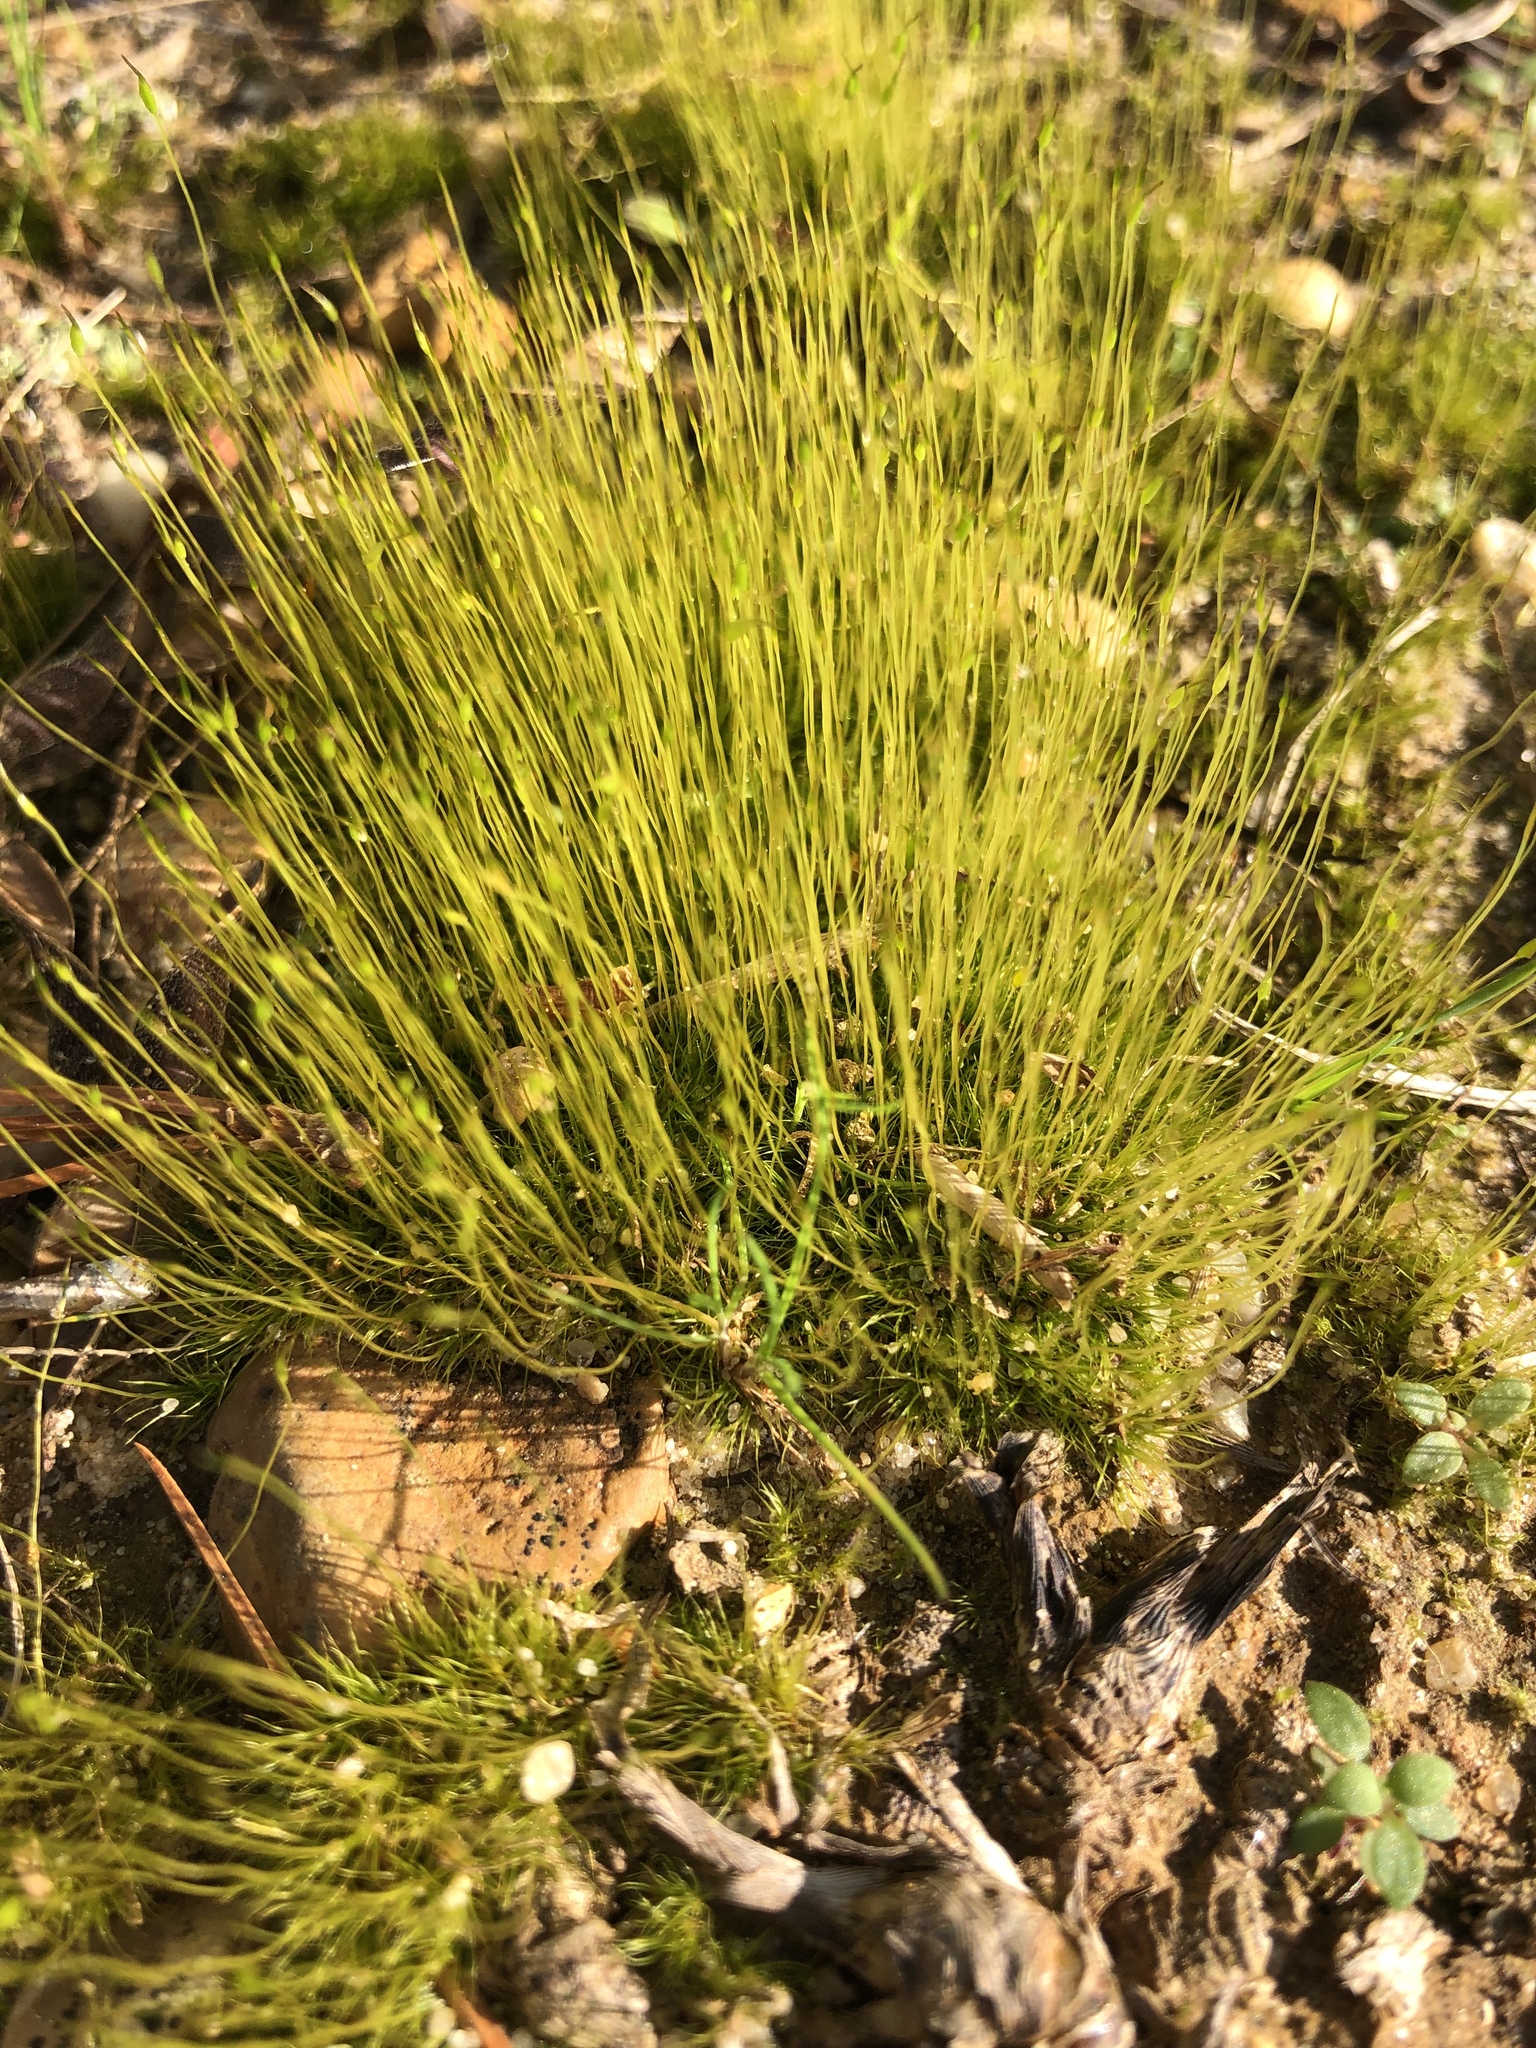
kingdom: Plantae
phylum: Bryophyta
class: Bryopsida
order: Dicranales
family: Ditrichaceae
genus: Ditrichum
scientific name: Ditrichum pallidum
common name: Pale cow-hair moss
